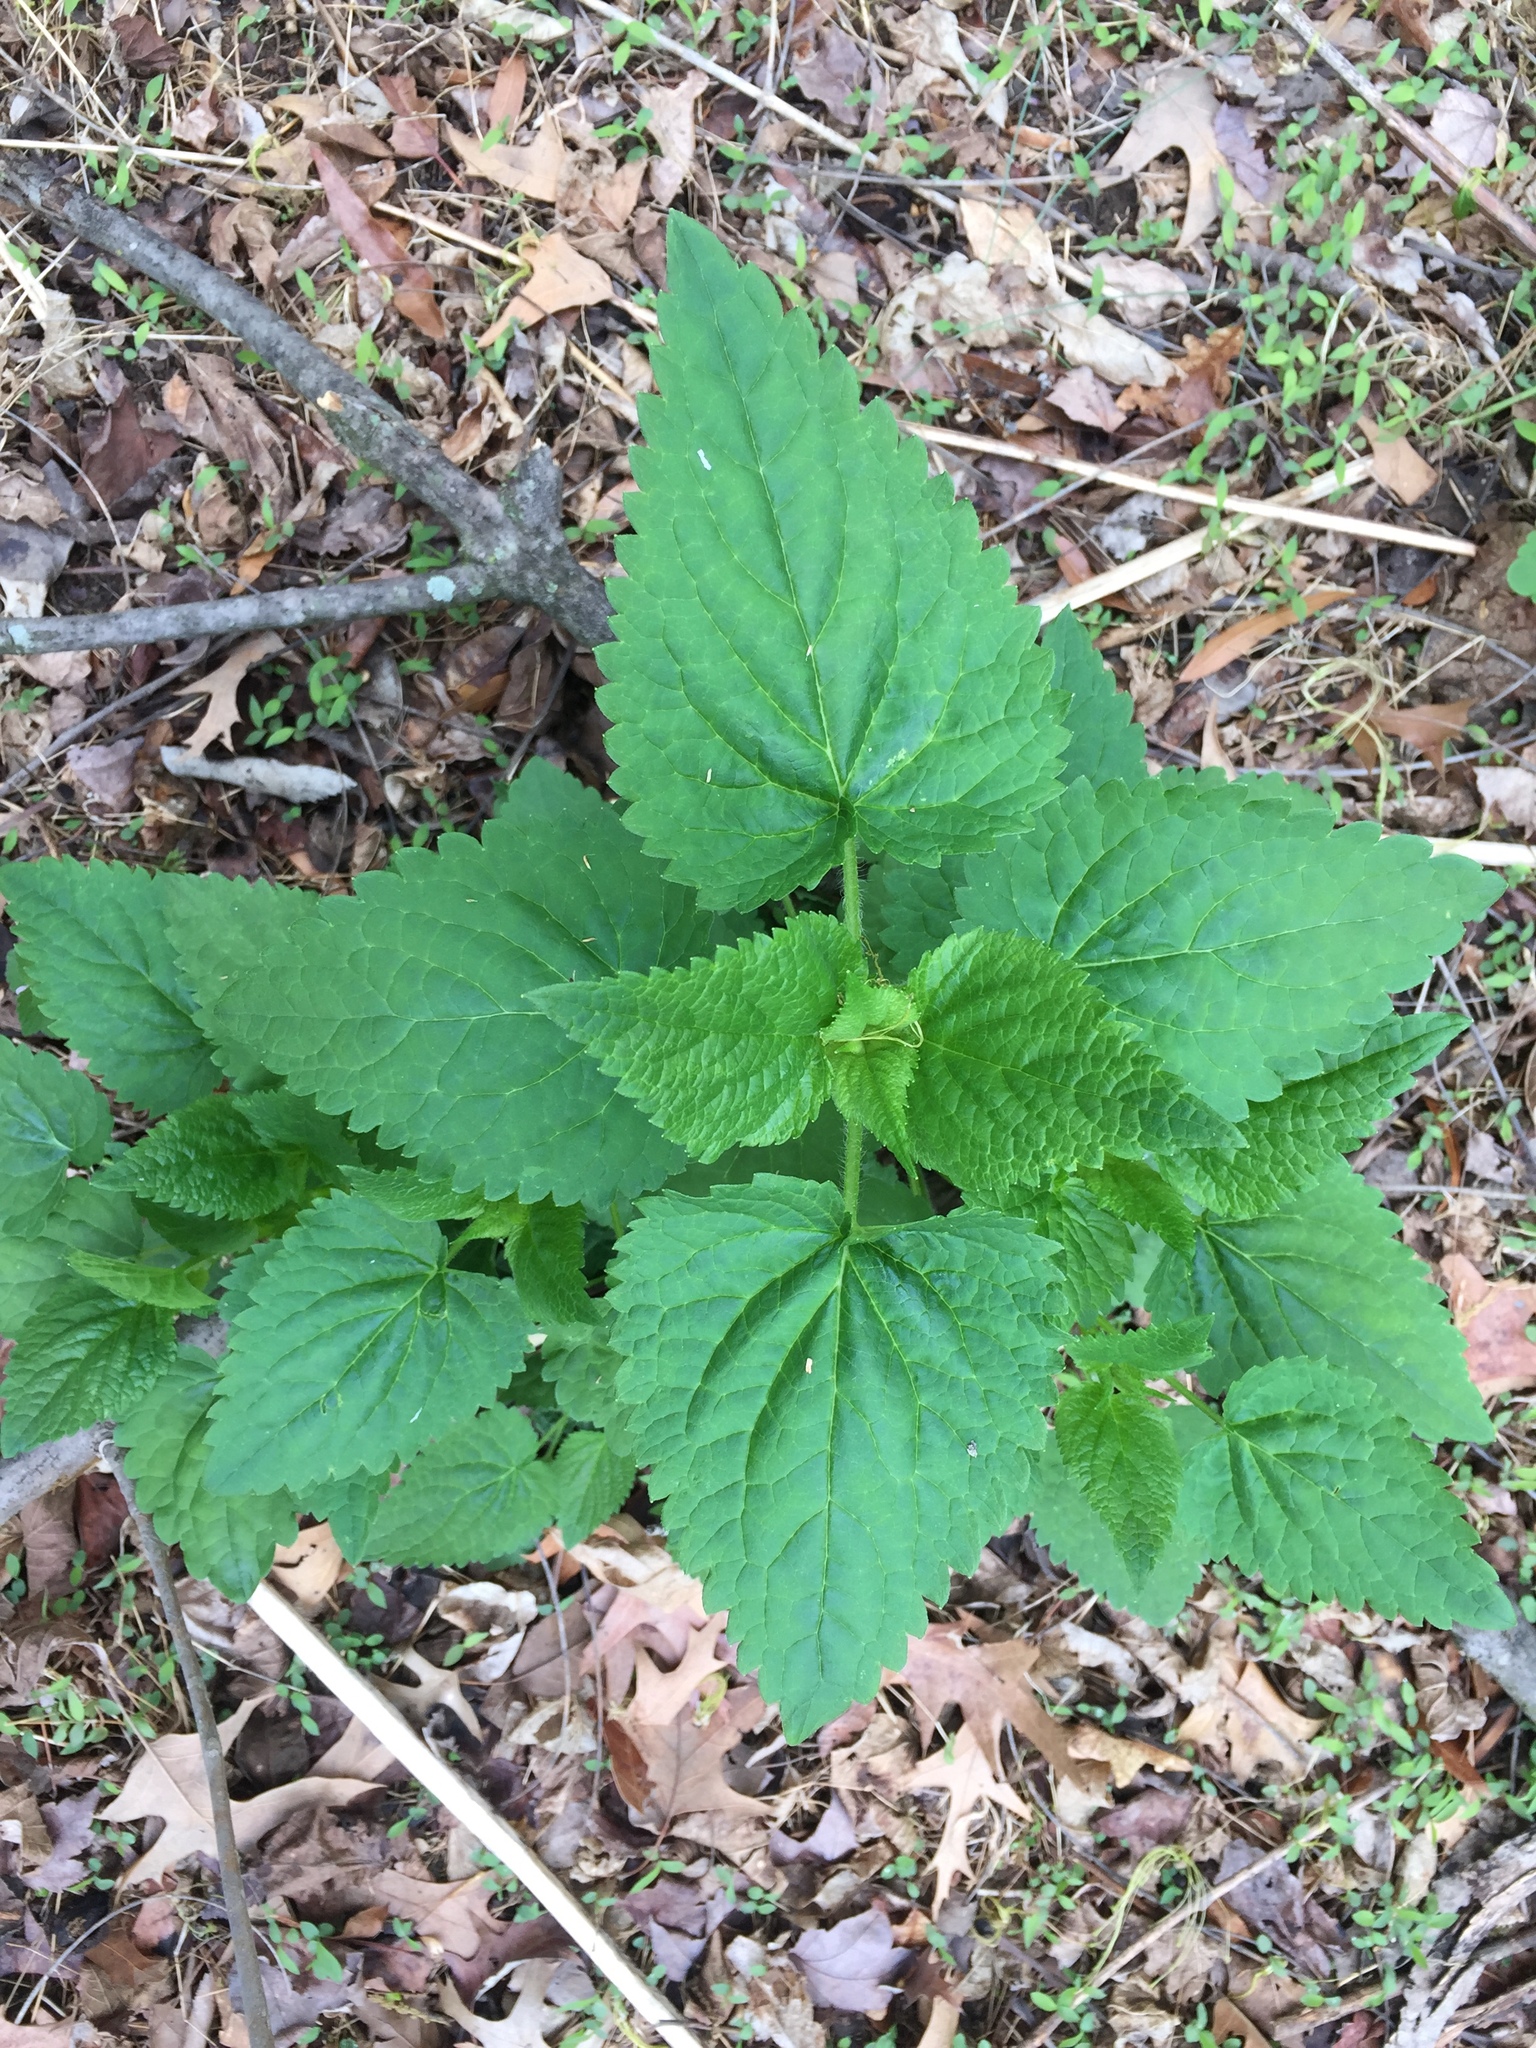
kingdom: Plantae
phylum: Tracheophyta
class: Magnoliopsida
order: Rosales
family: Urticaceae
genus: Urtica
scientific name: Urtica dioica
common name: Common nettle
